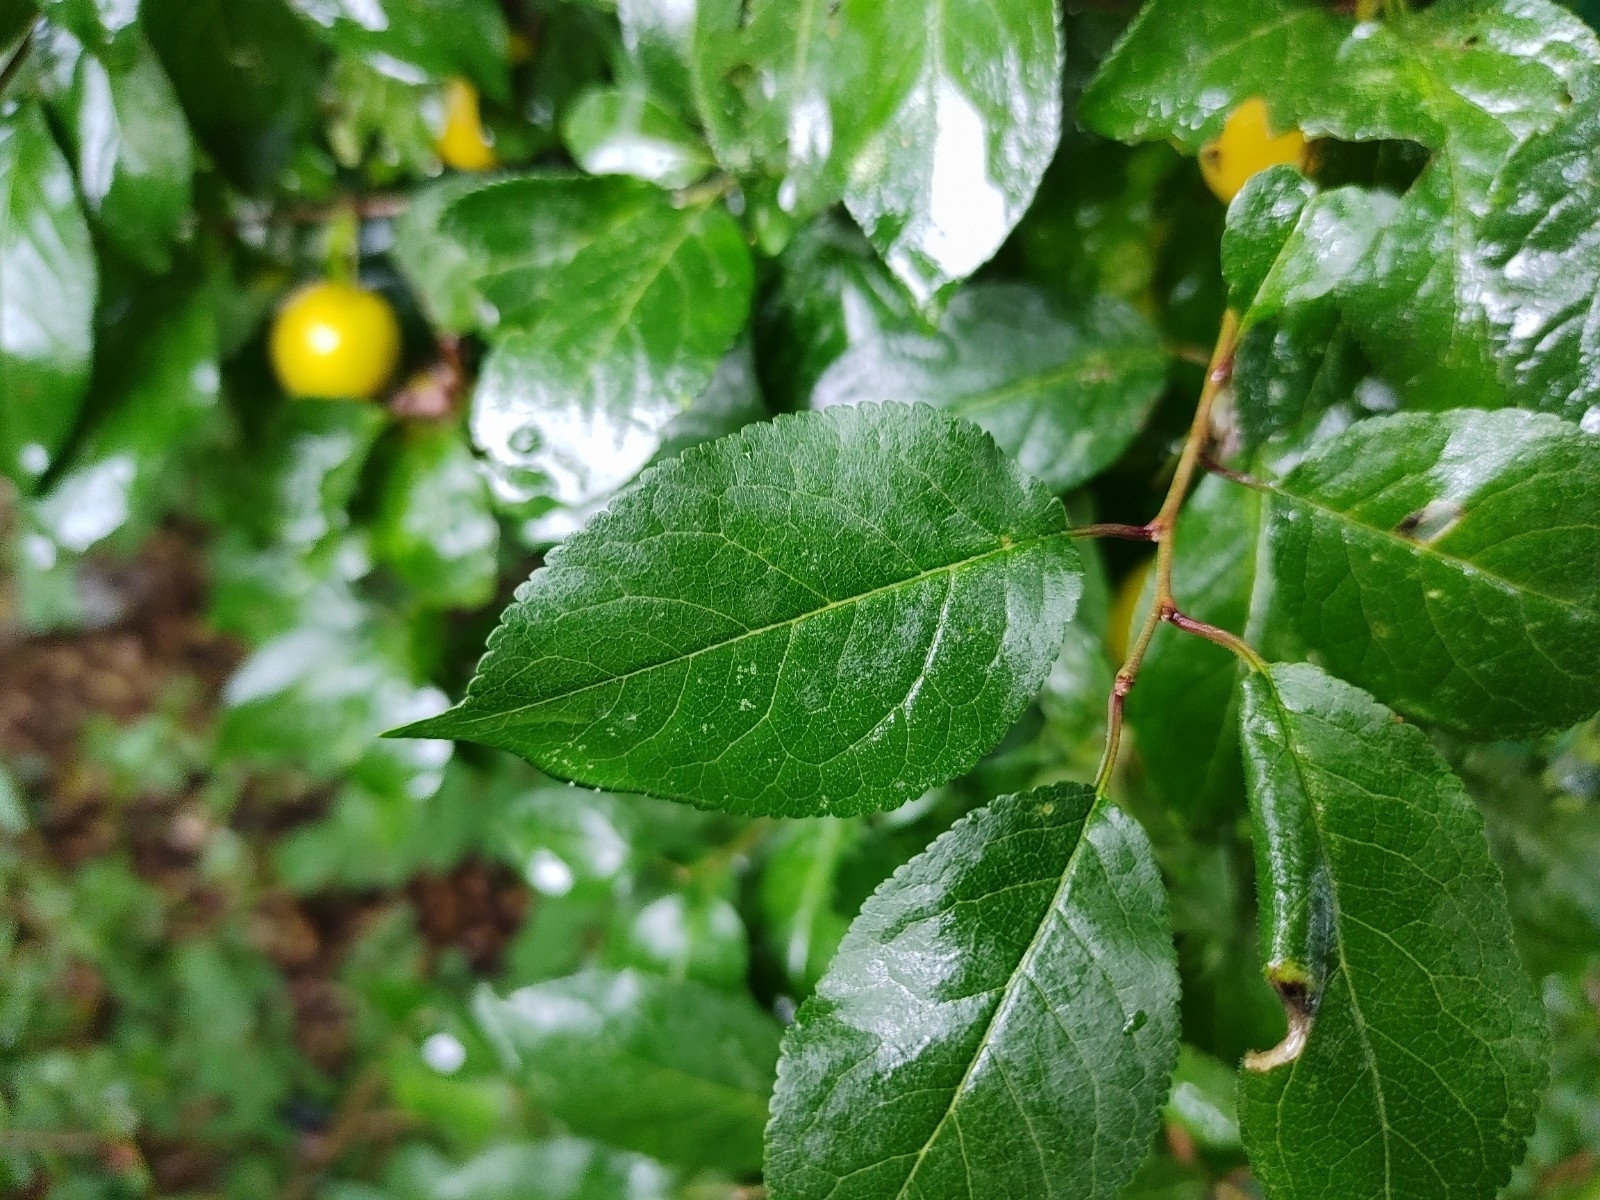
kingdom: Plantae
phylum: Tracheophyta
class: Magnoliopsida
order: Rosales
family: Rosaceae
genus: Prunus
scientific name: Prunus cerasifera
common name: Cherry plum
